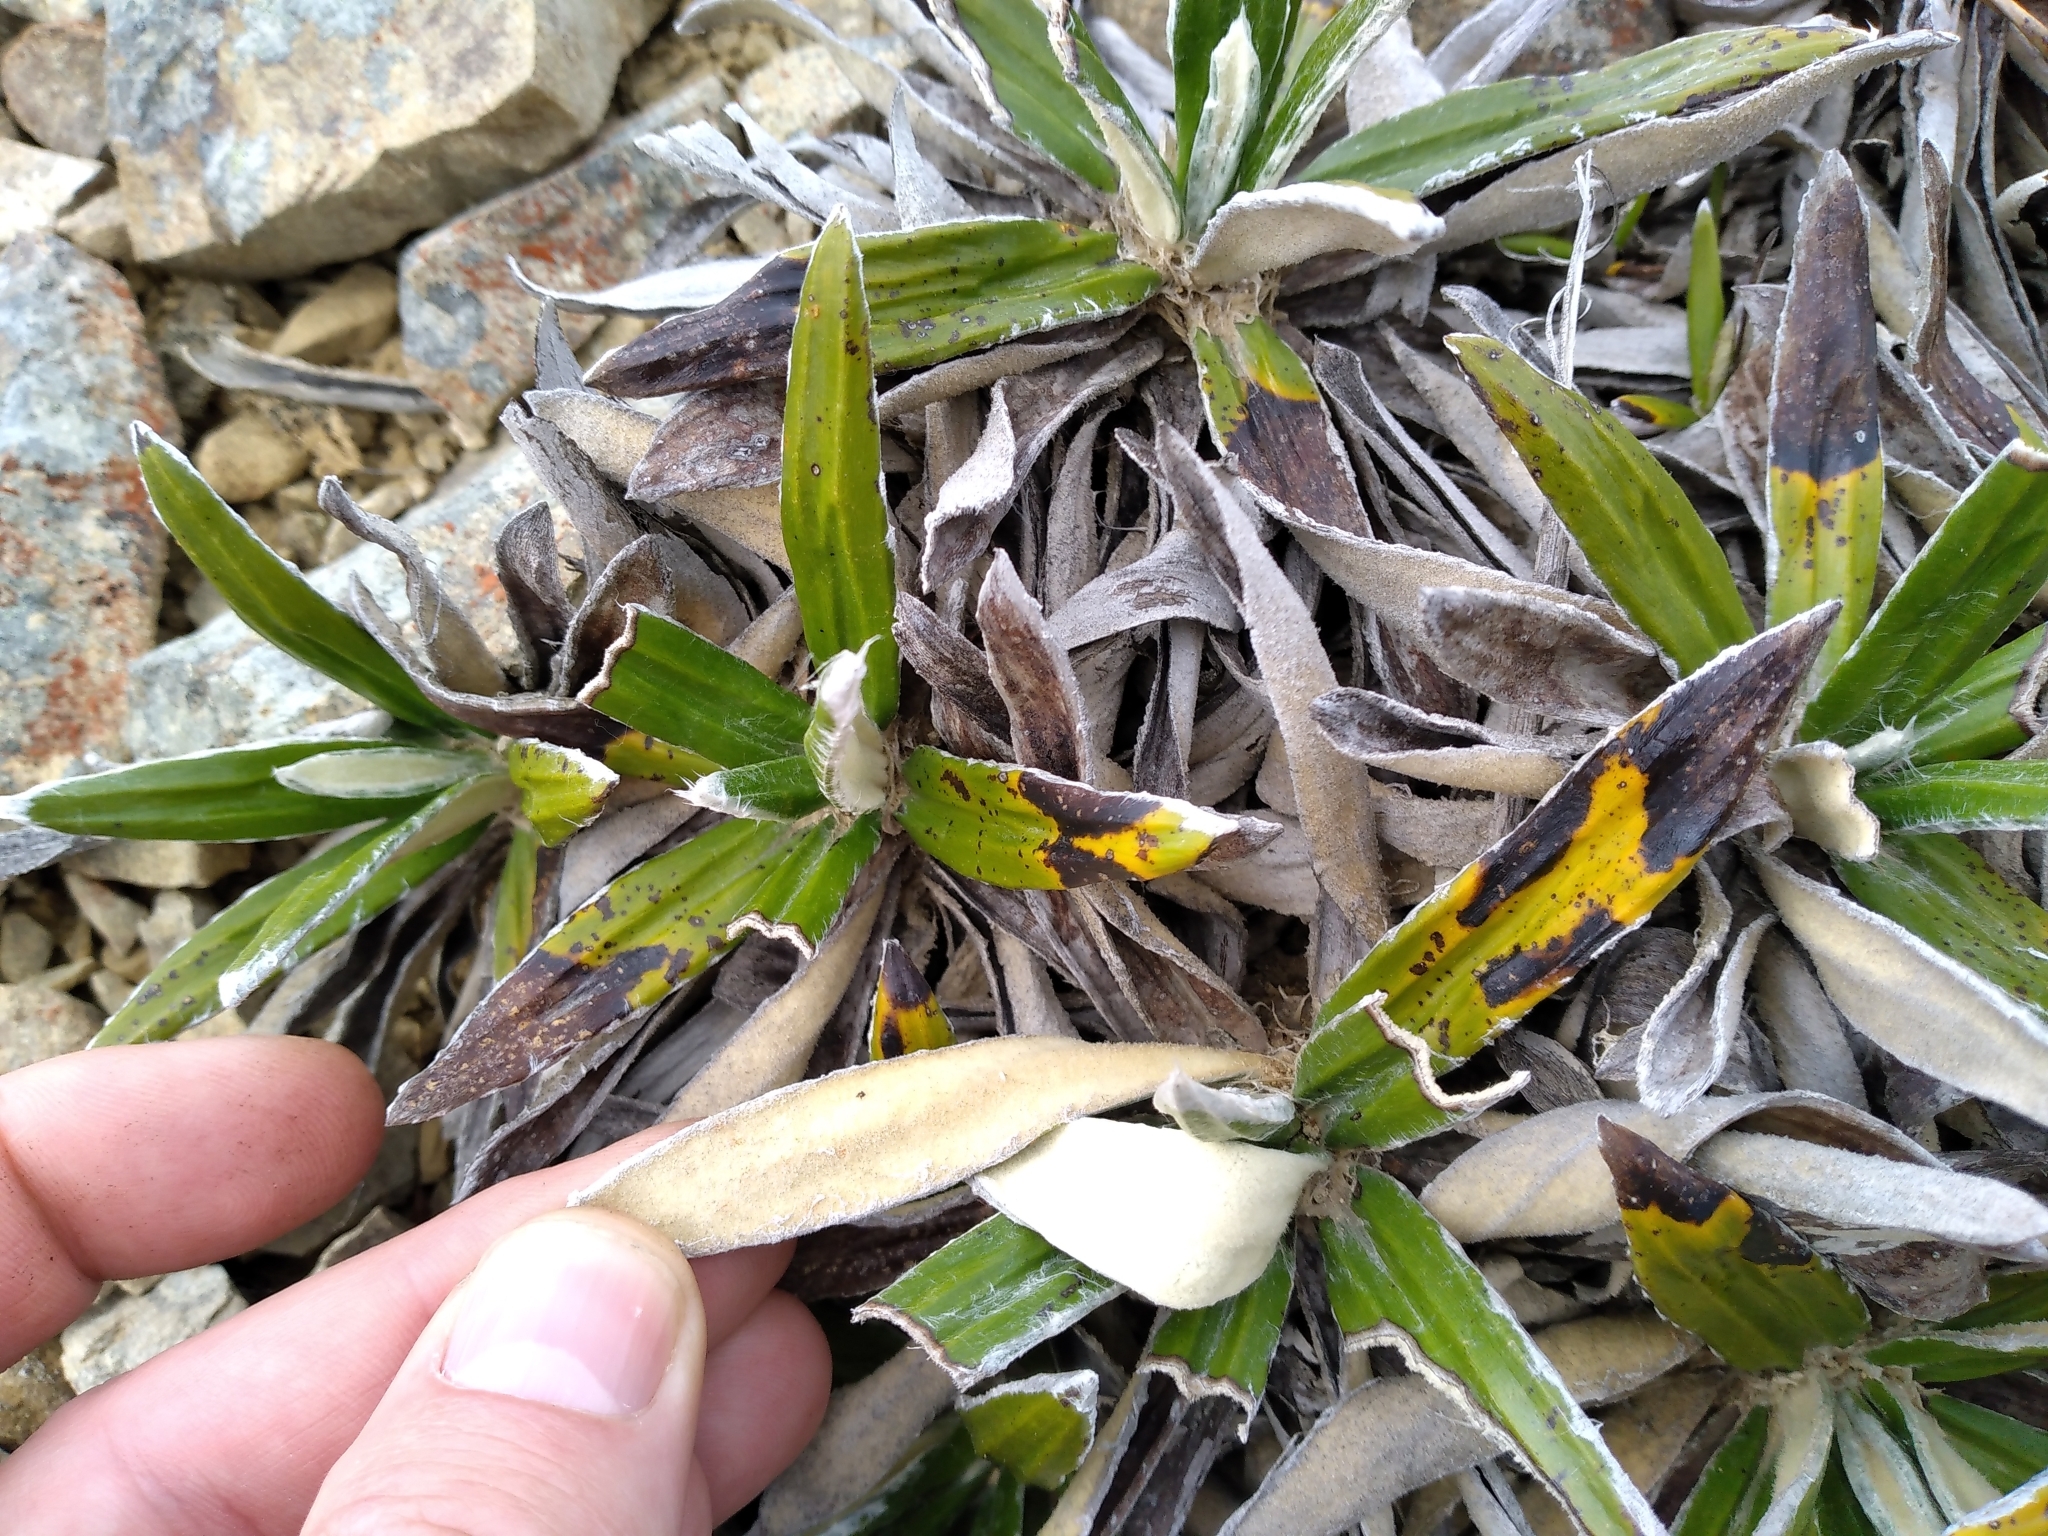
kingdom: Plantae
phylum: Tracheophyta
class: Magnoliopsida
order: Asterales
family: Asteraceae
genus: Celmisia
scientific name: Celmisia spectabilis
